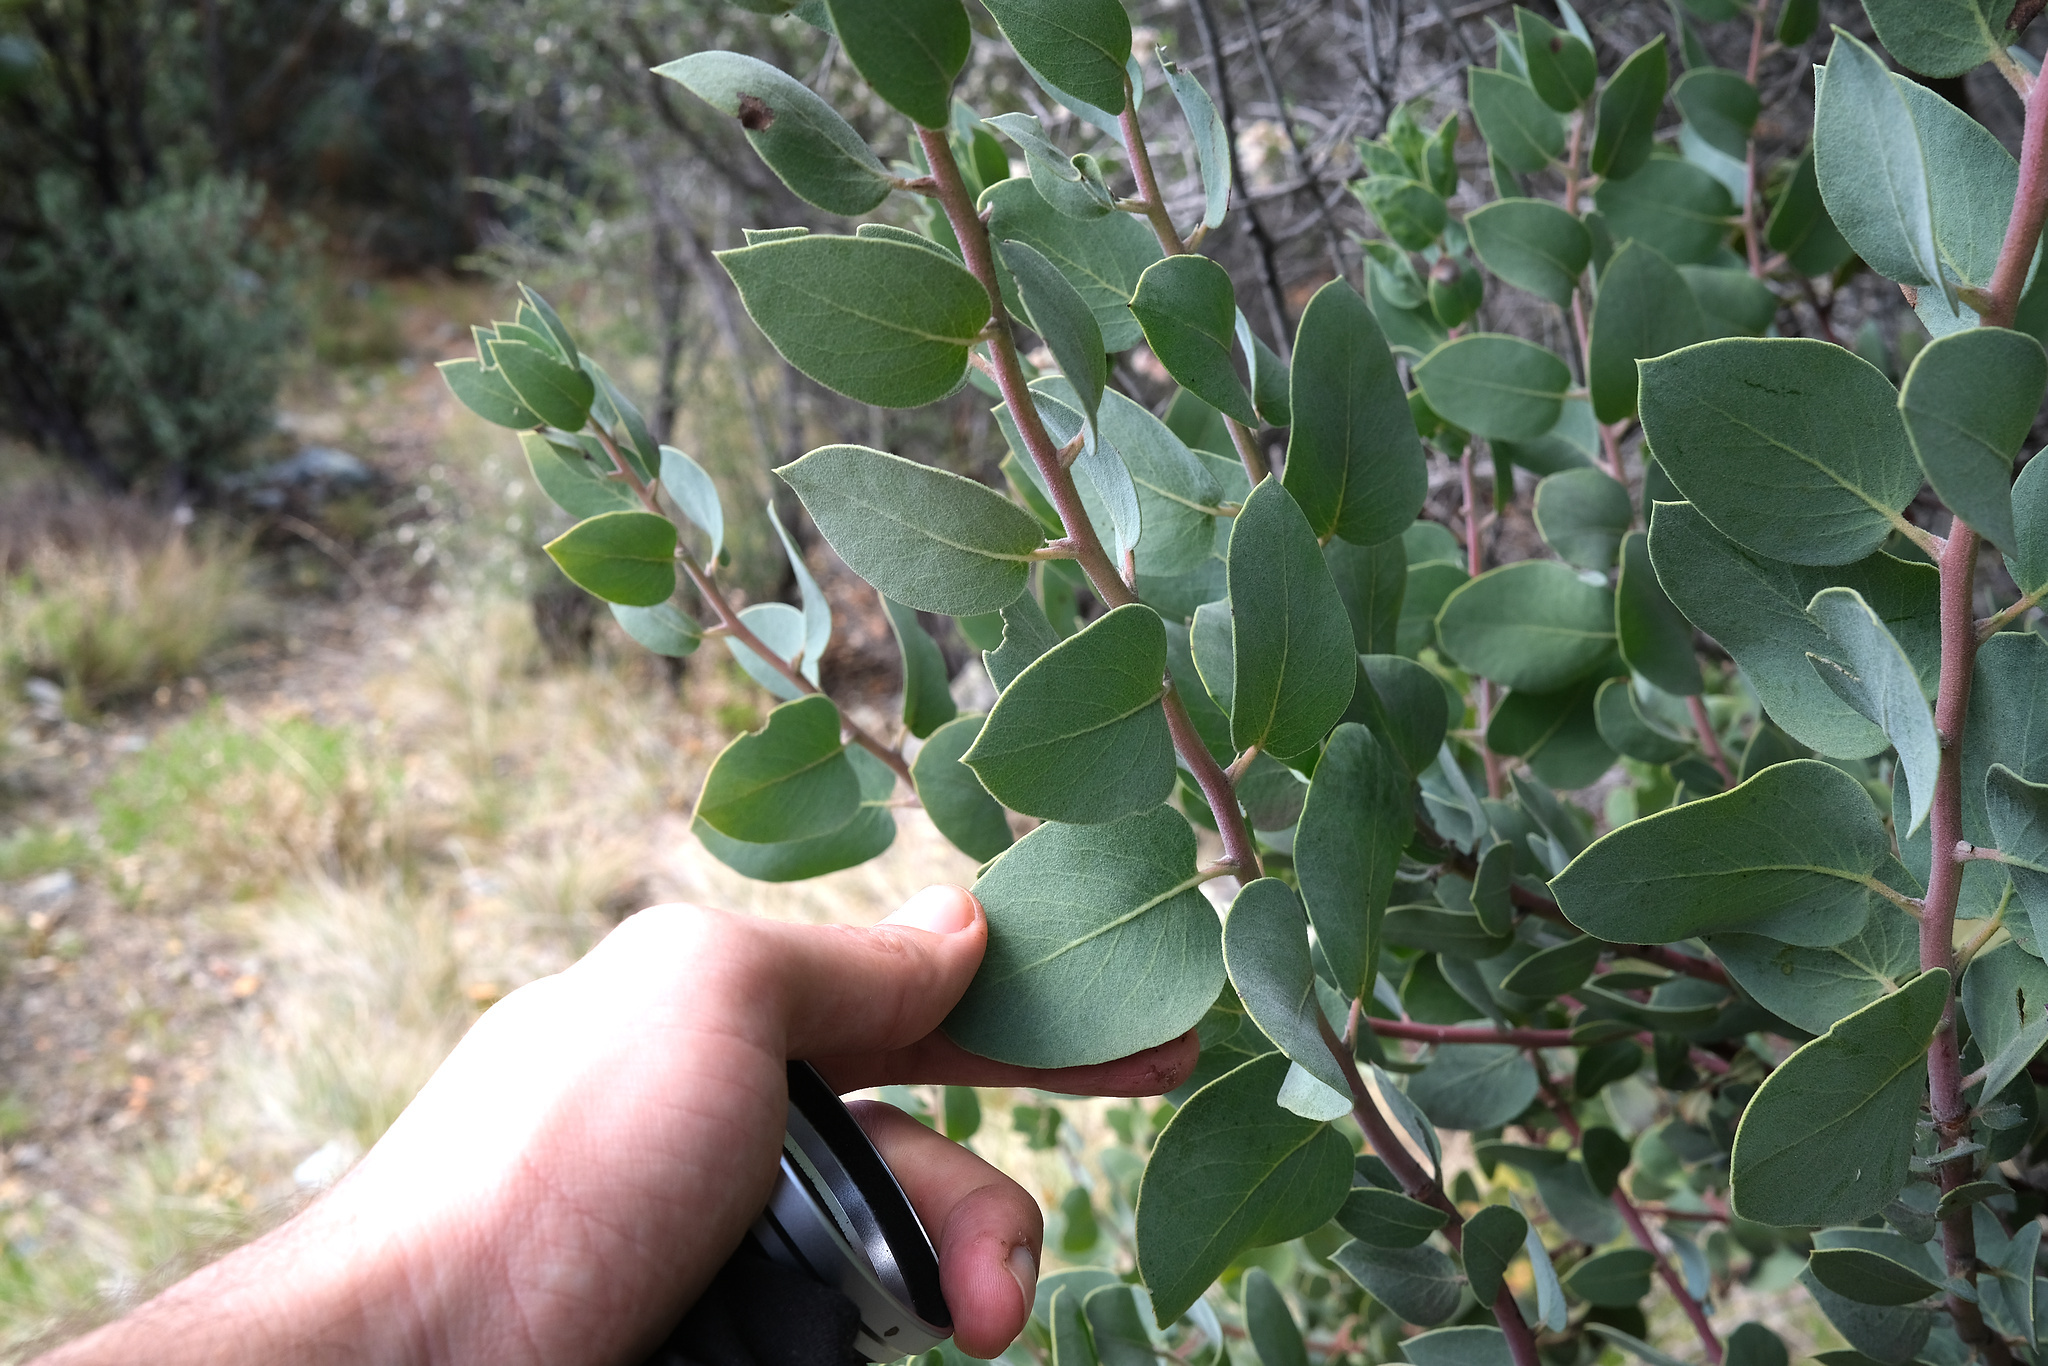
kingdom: Plantae
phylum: Tracheophyta
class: Magnoliopsida
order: Ericales
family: Ericaceae
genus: Arctostaphylos
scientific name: Arctostaphylos glauca
